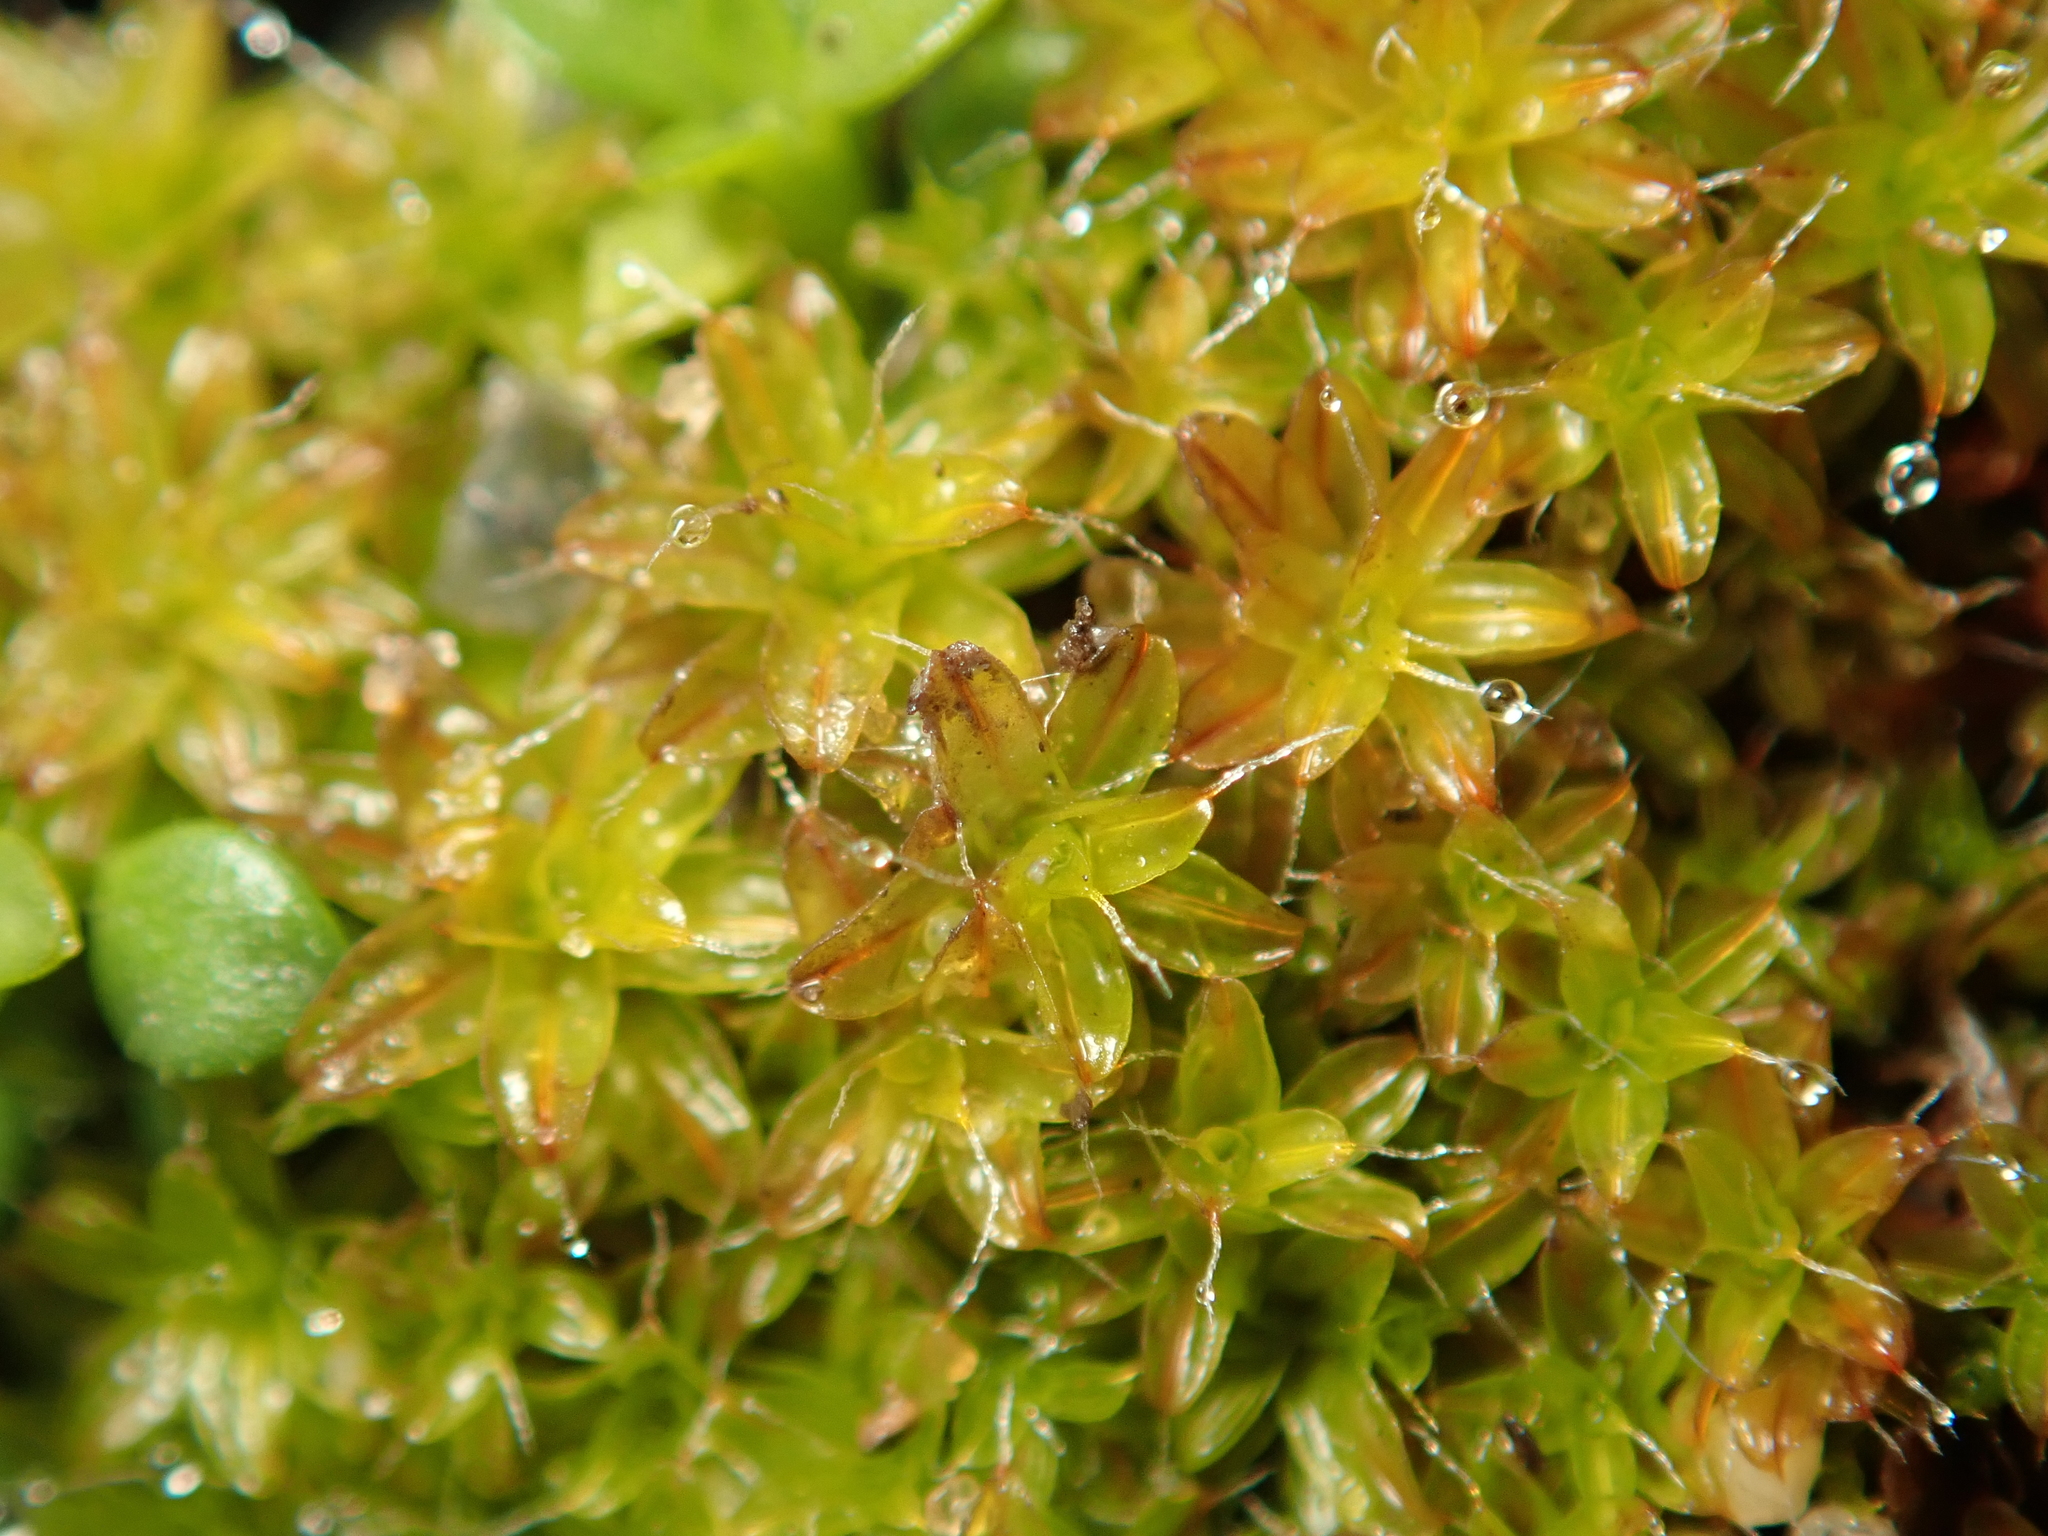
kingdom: Plantae
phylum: Bryophyta
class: Bryopsida
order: Pottiales
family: Pottiaceae
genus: Syntrichia
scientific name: Syntrichia ruralis
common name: Sidewalk screw moss
